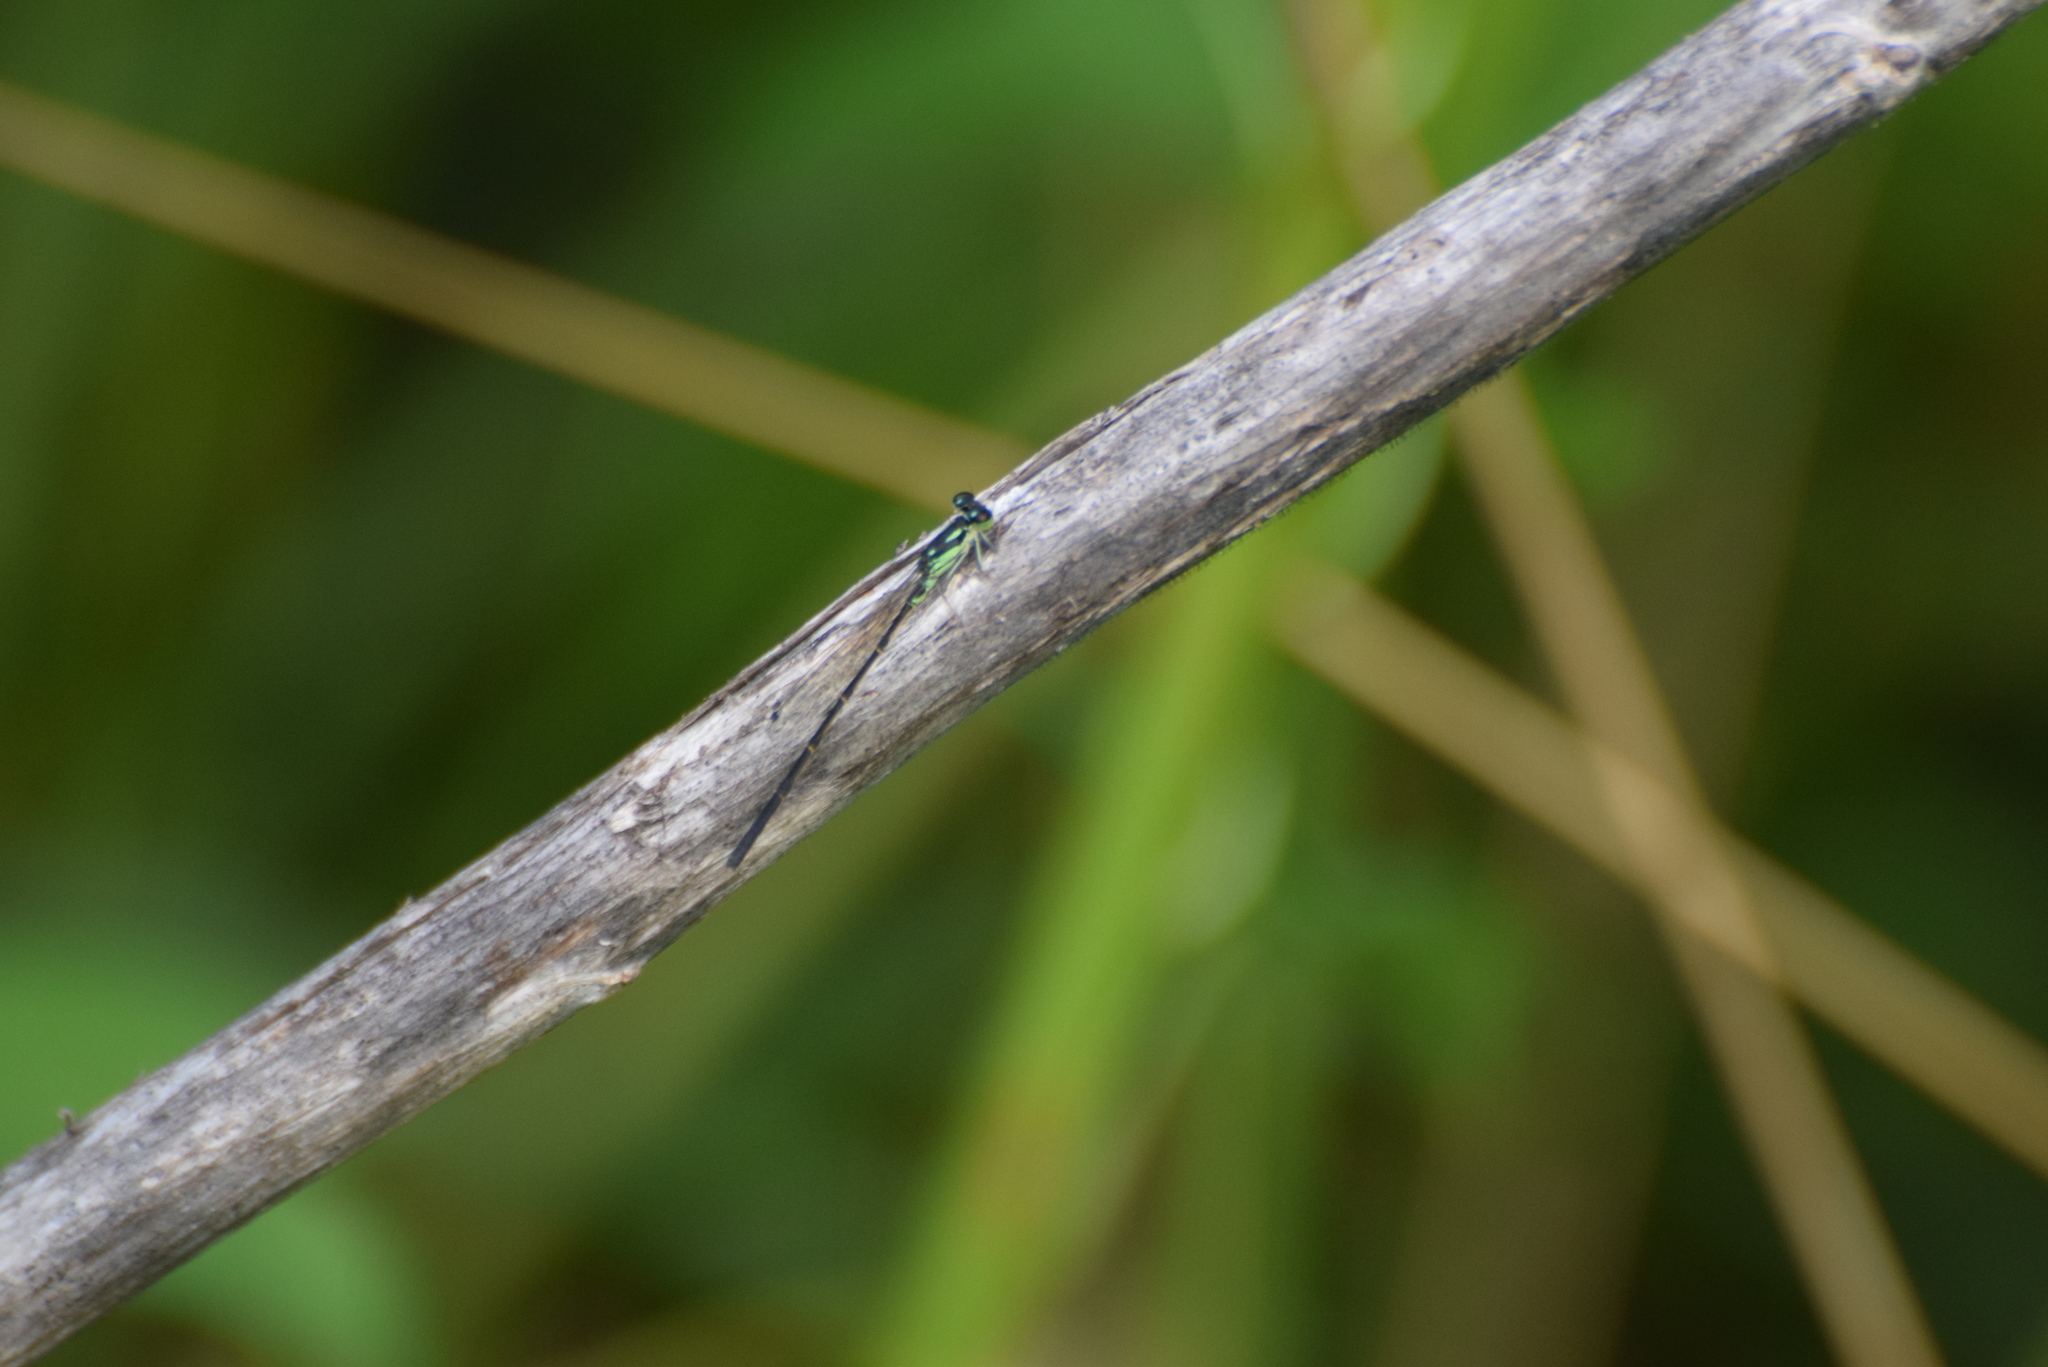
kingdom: Animalia
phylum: Arthropoda
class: Insecta
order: Odonata
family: Coenagrionidae
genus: Ischnura
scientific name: Ischnura posita
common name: Fragile forktail
